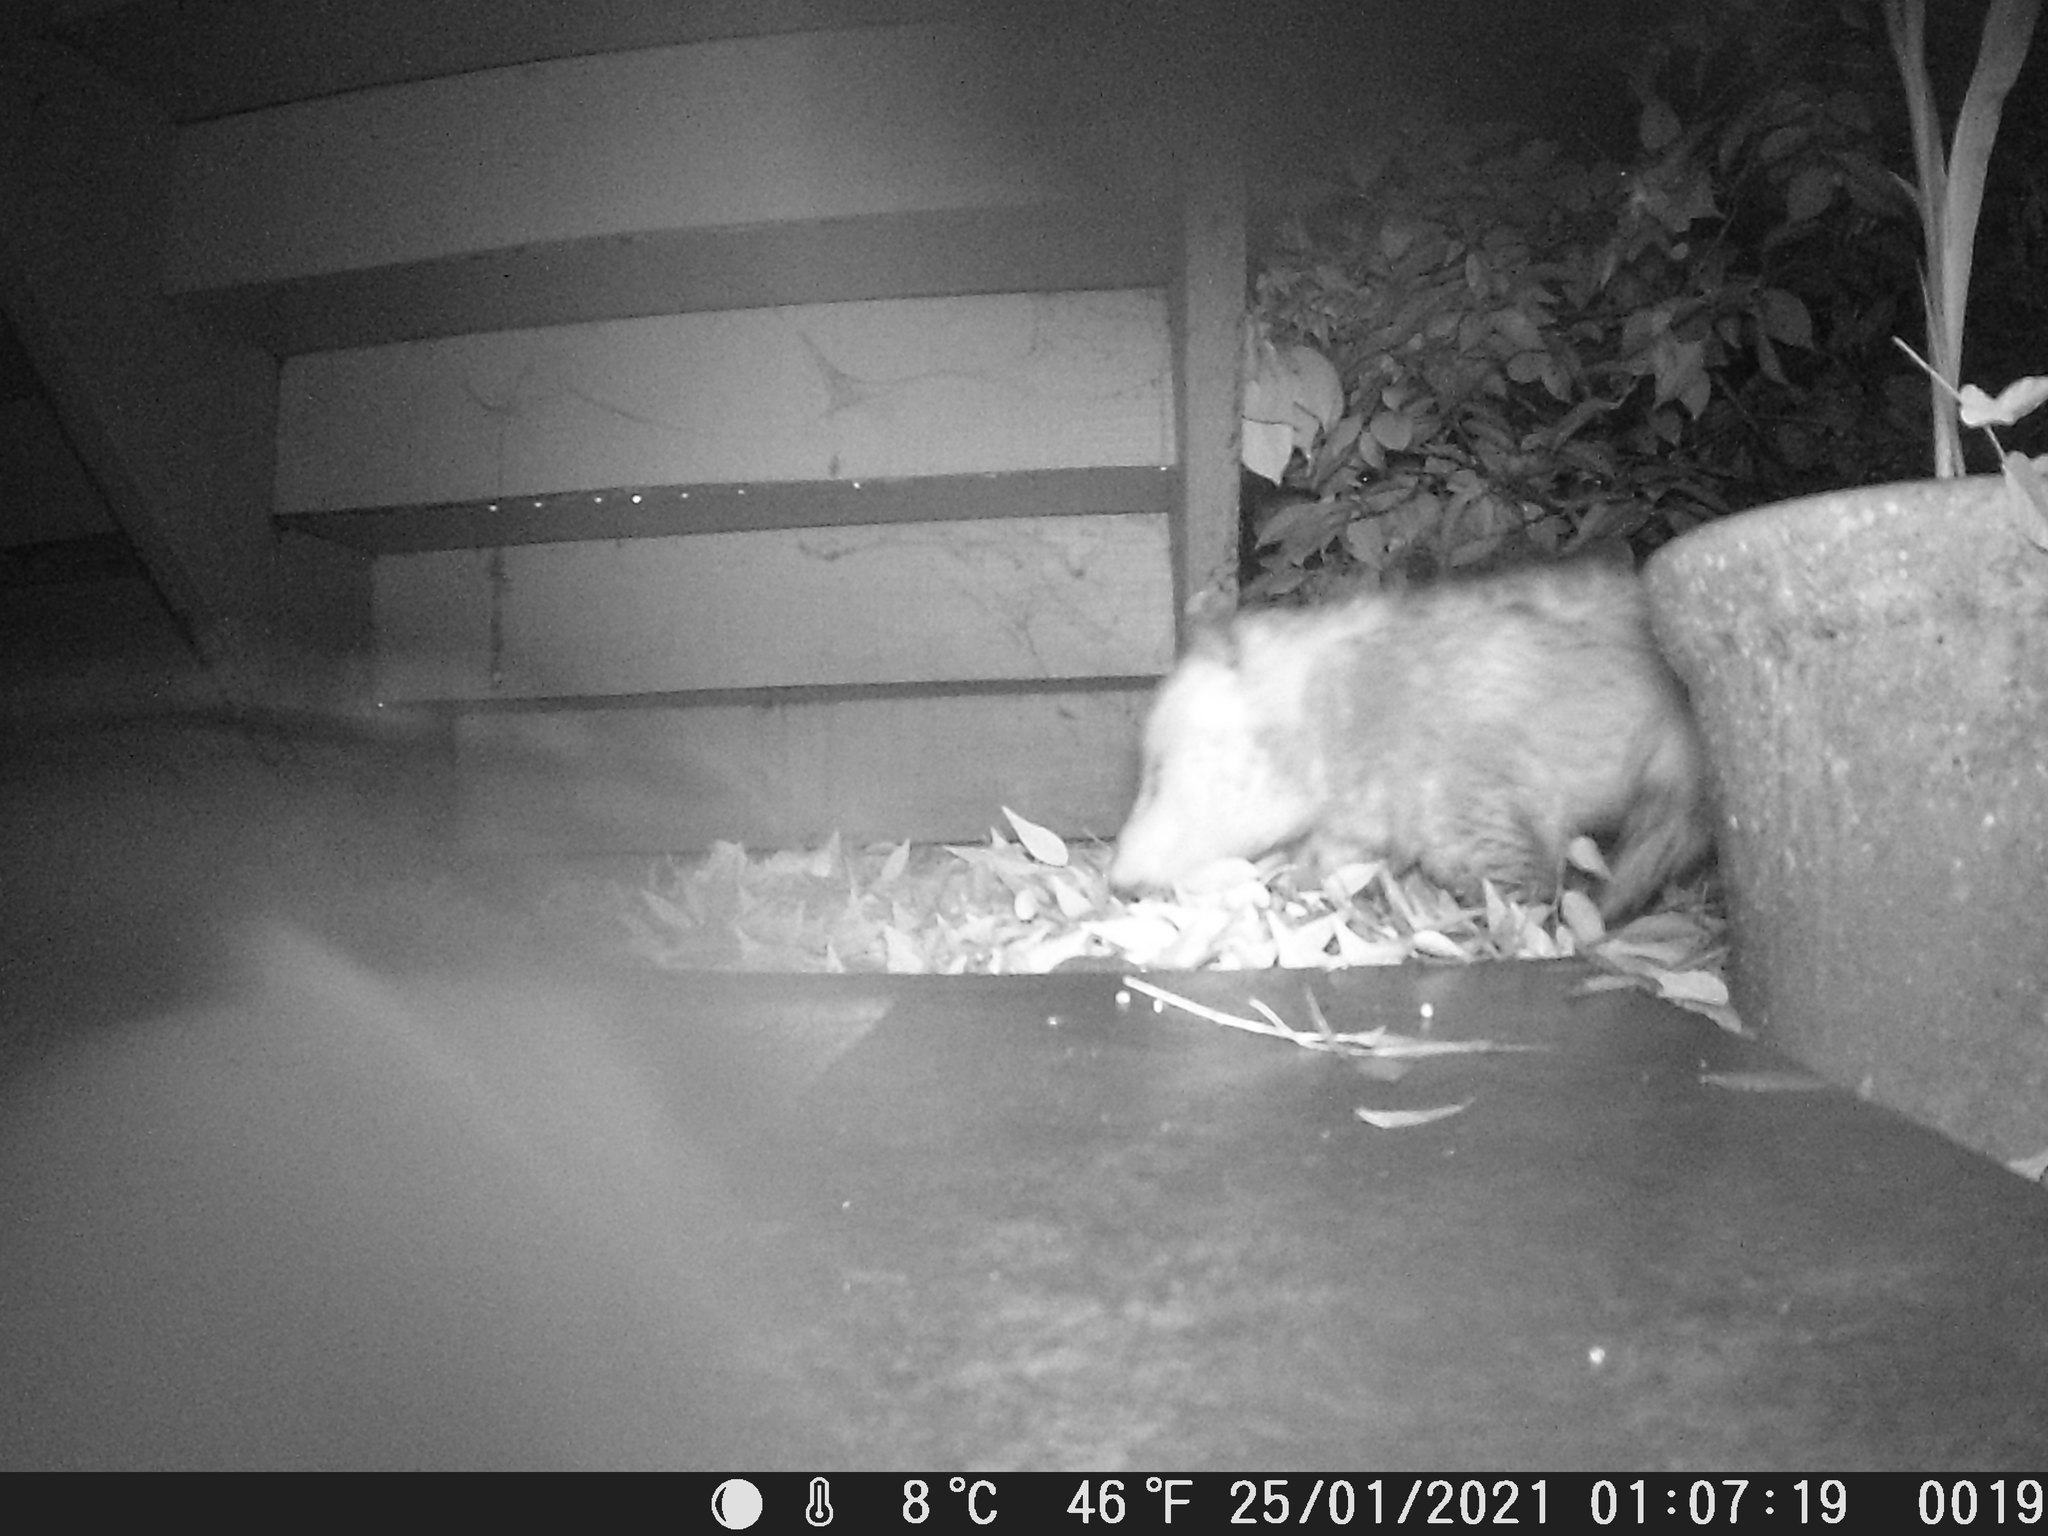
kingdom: Animalia
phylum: Chordata
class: Mammalia
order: Didelphimorphia
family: Didelphidae
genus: Didelphis
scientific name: Didelphis virginiana
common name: Virginia opossum
